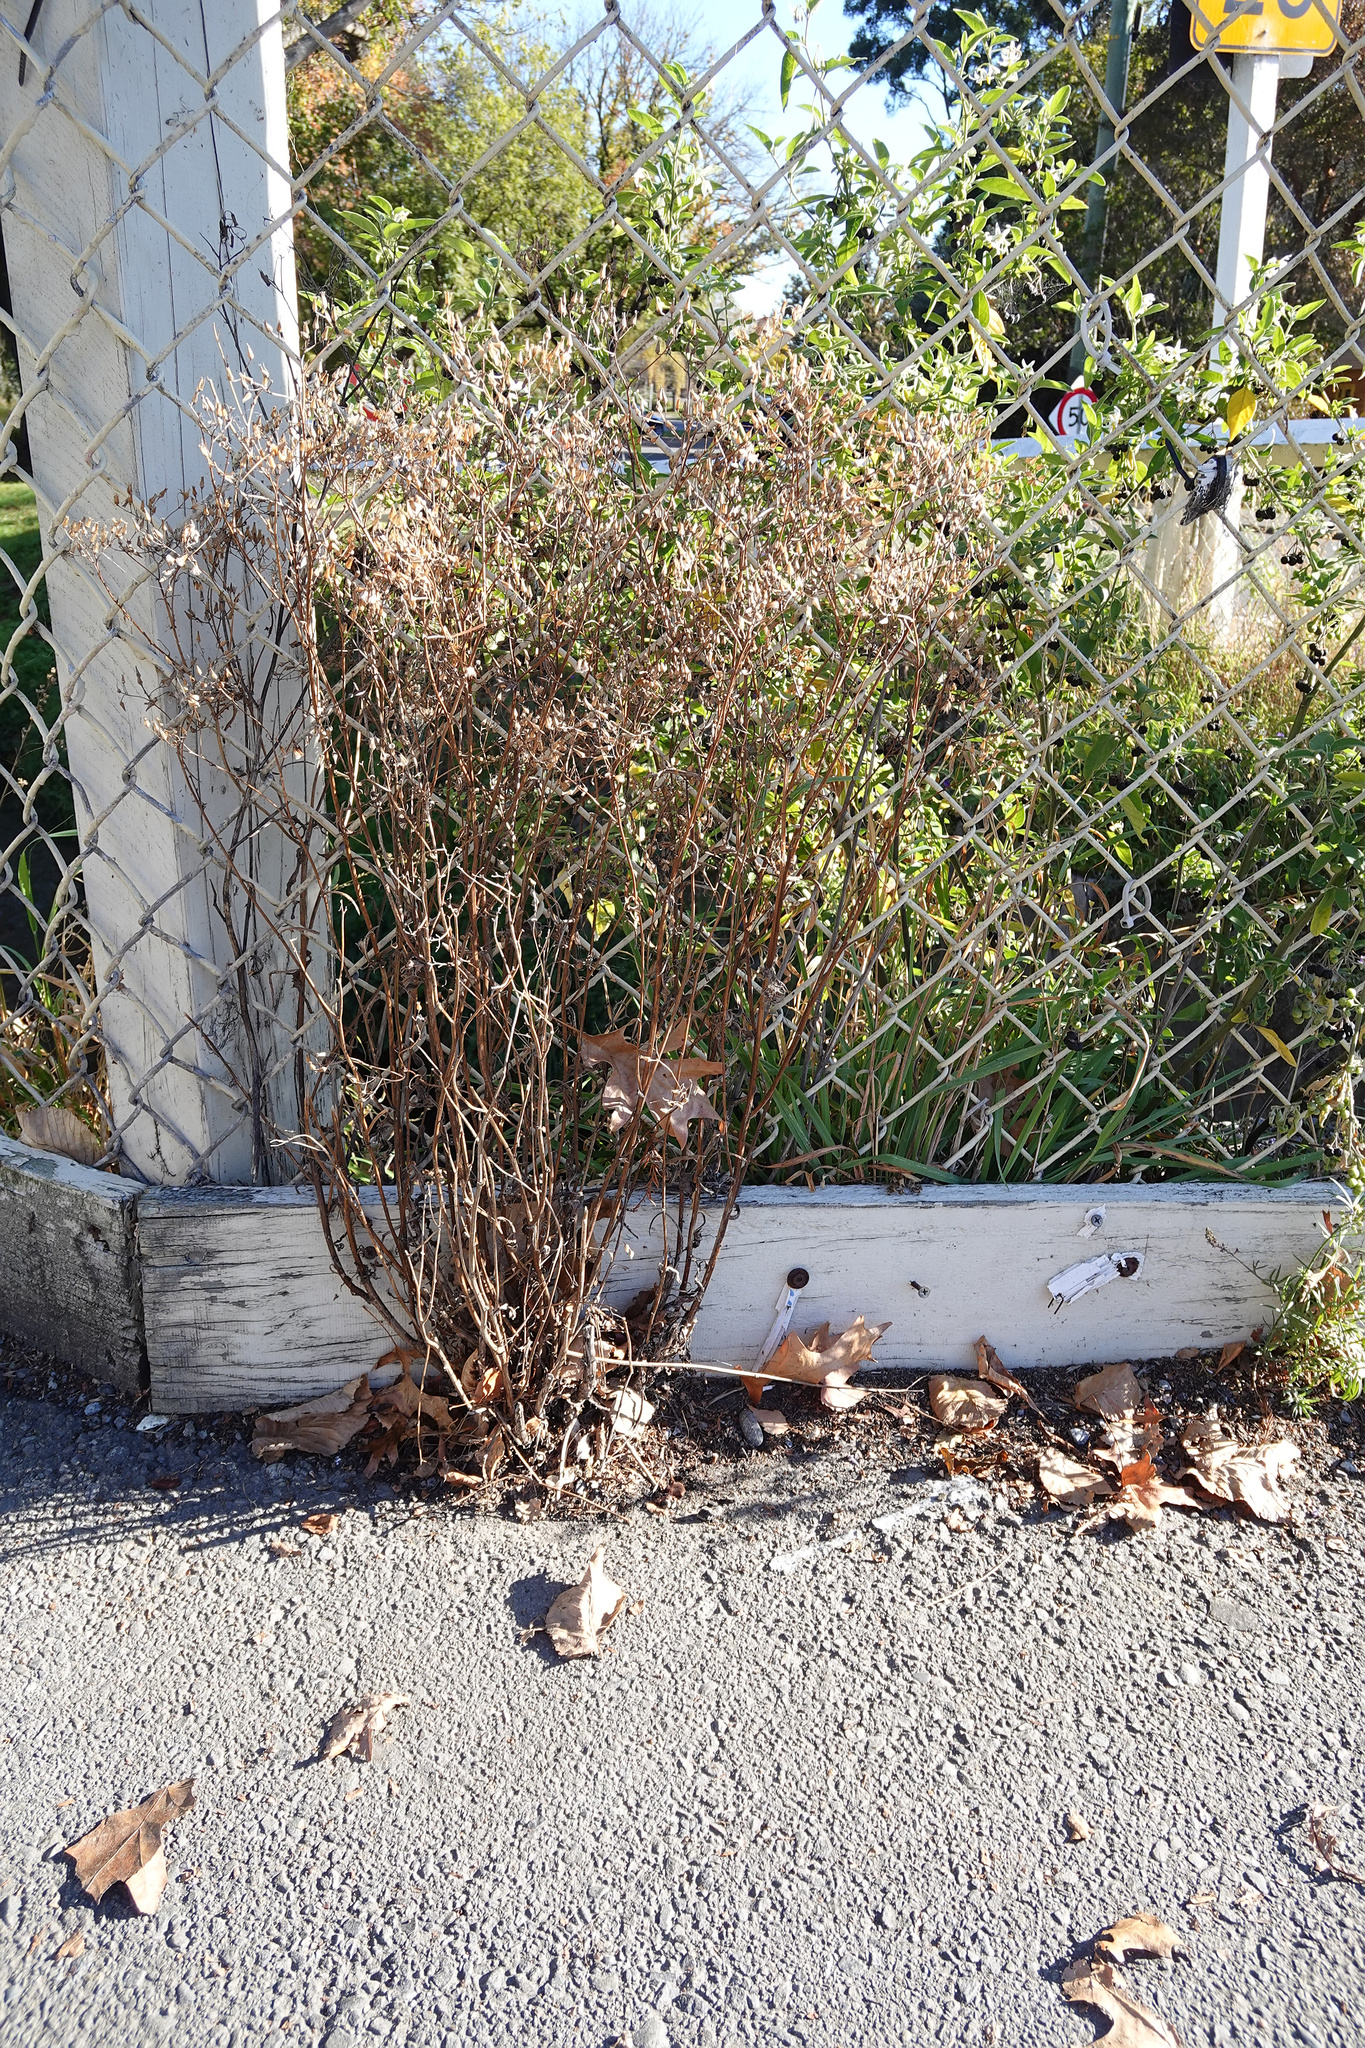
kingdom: Plantae
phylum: Tracheophyta
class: Magnoliopsida
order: Asterales
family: Asteraceae
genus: Senecio
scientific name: Senecio hispidulus
